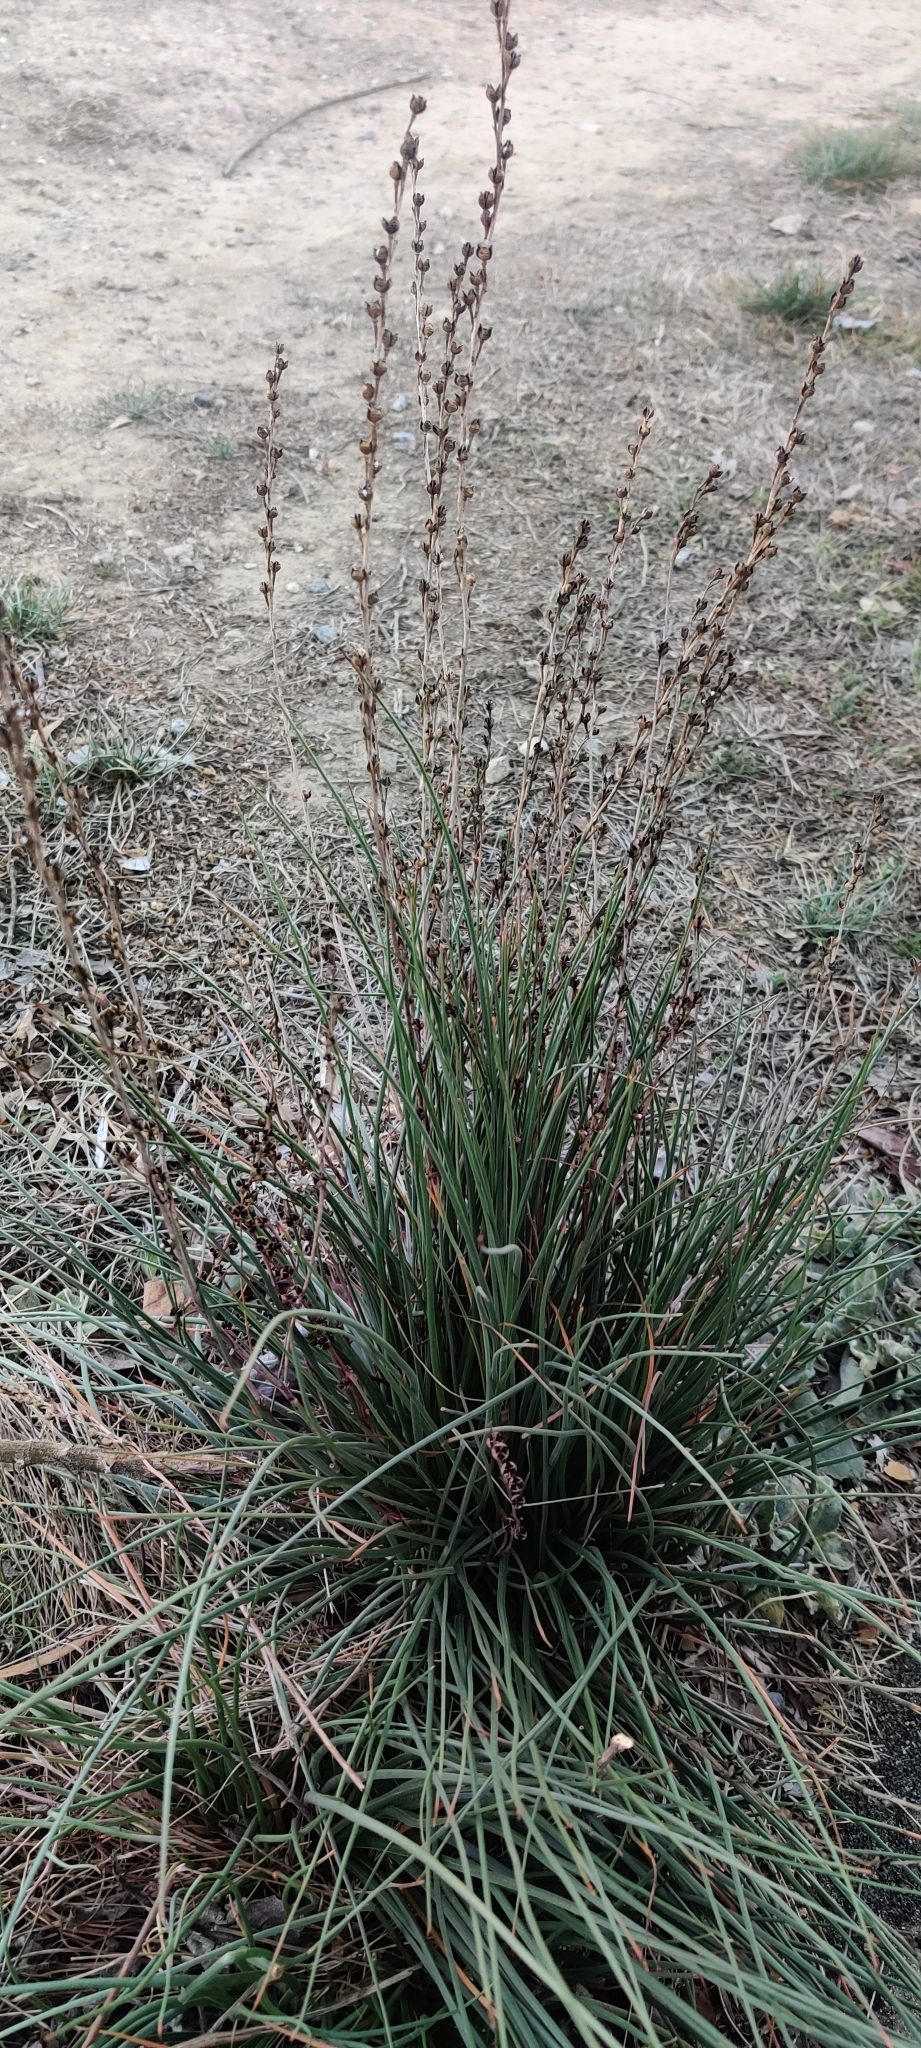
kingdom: Plantae
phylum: Tracheophyta
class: Liliopsida
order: Asparagales
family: Asphodelaceae
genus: Asphodelus
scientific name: Asphodelus fistulosus
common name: Onionweed
